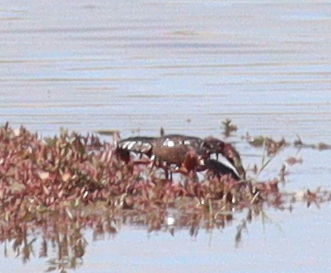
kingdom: Animalia
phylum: Arthropoda
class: Malacostraca
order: Decapoda
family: Cambaridae
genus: Procambarus
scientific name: Procambarus clarkii
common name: Red swamp crayfish
